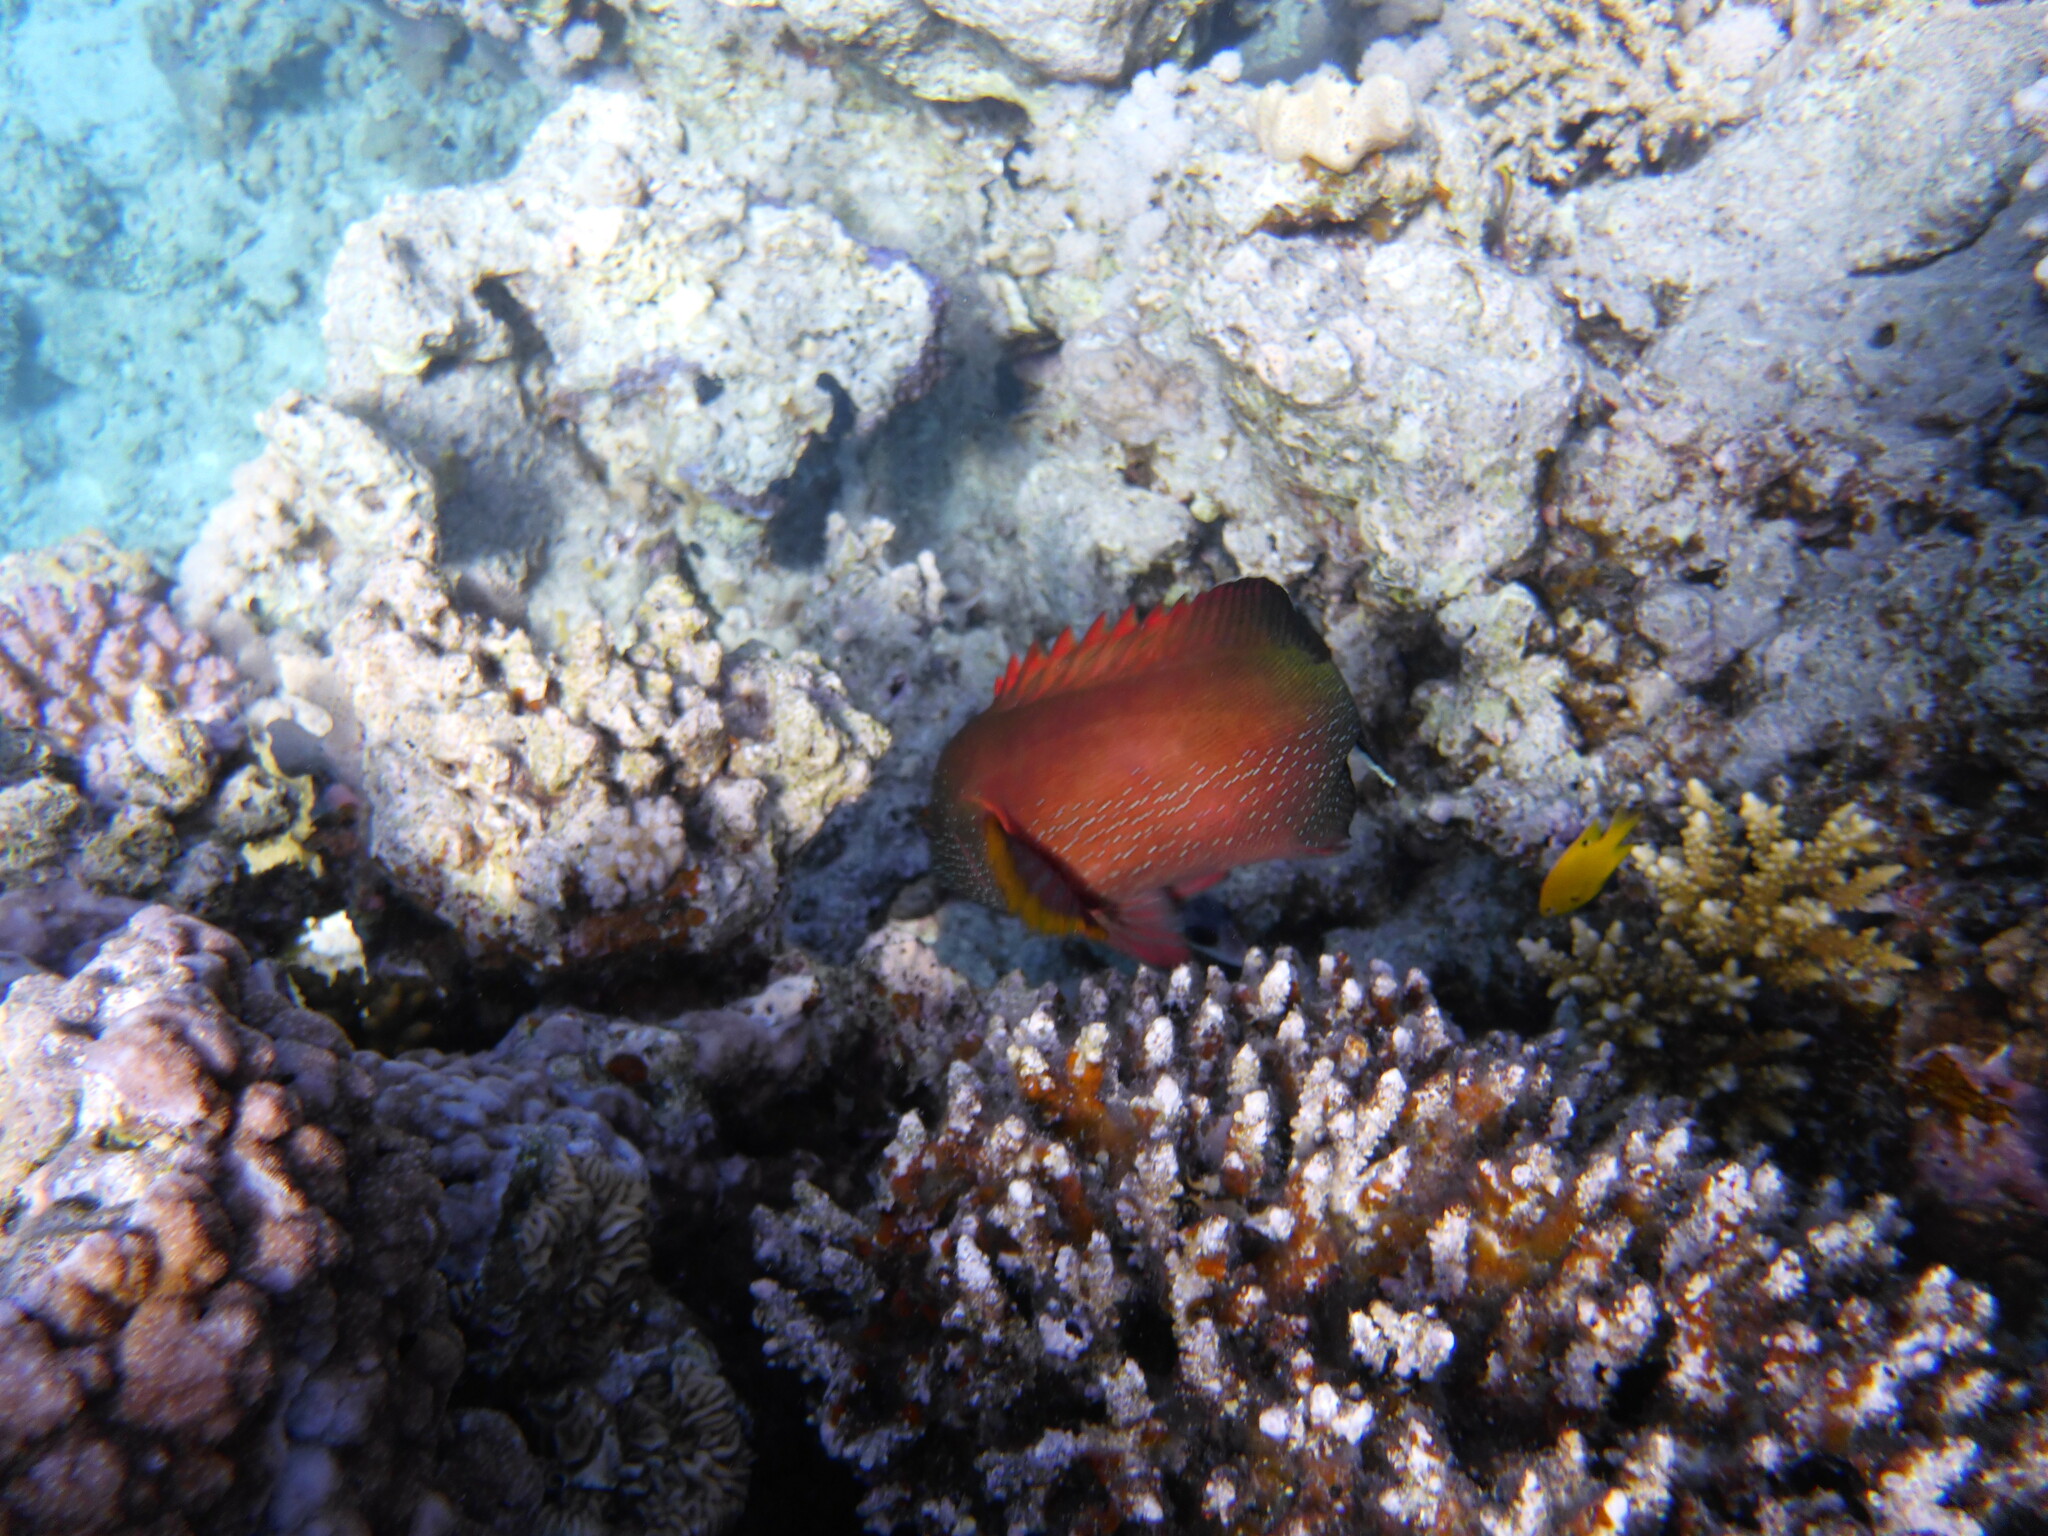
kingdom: Animalia
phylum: Chordata
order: Perciformes
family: Serranidae
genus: Cephalopholis
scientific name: Cephalopholis hemistiktos
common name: Halfspotted hind
